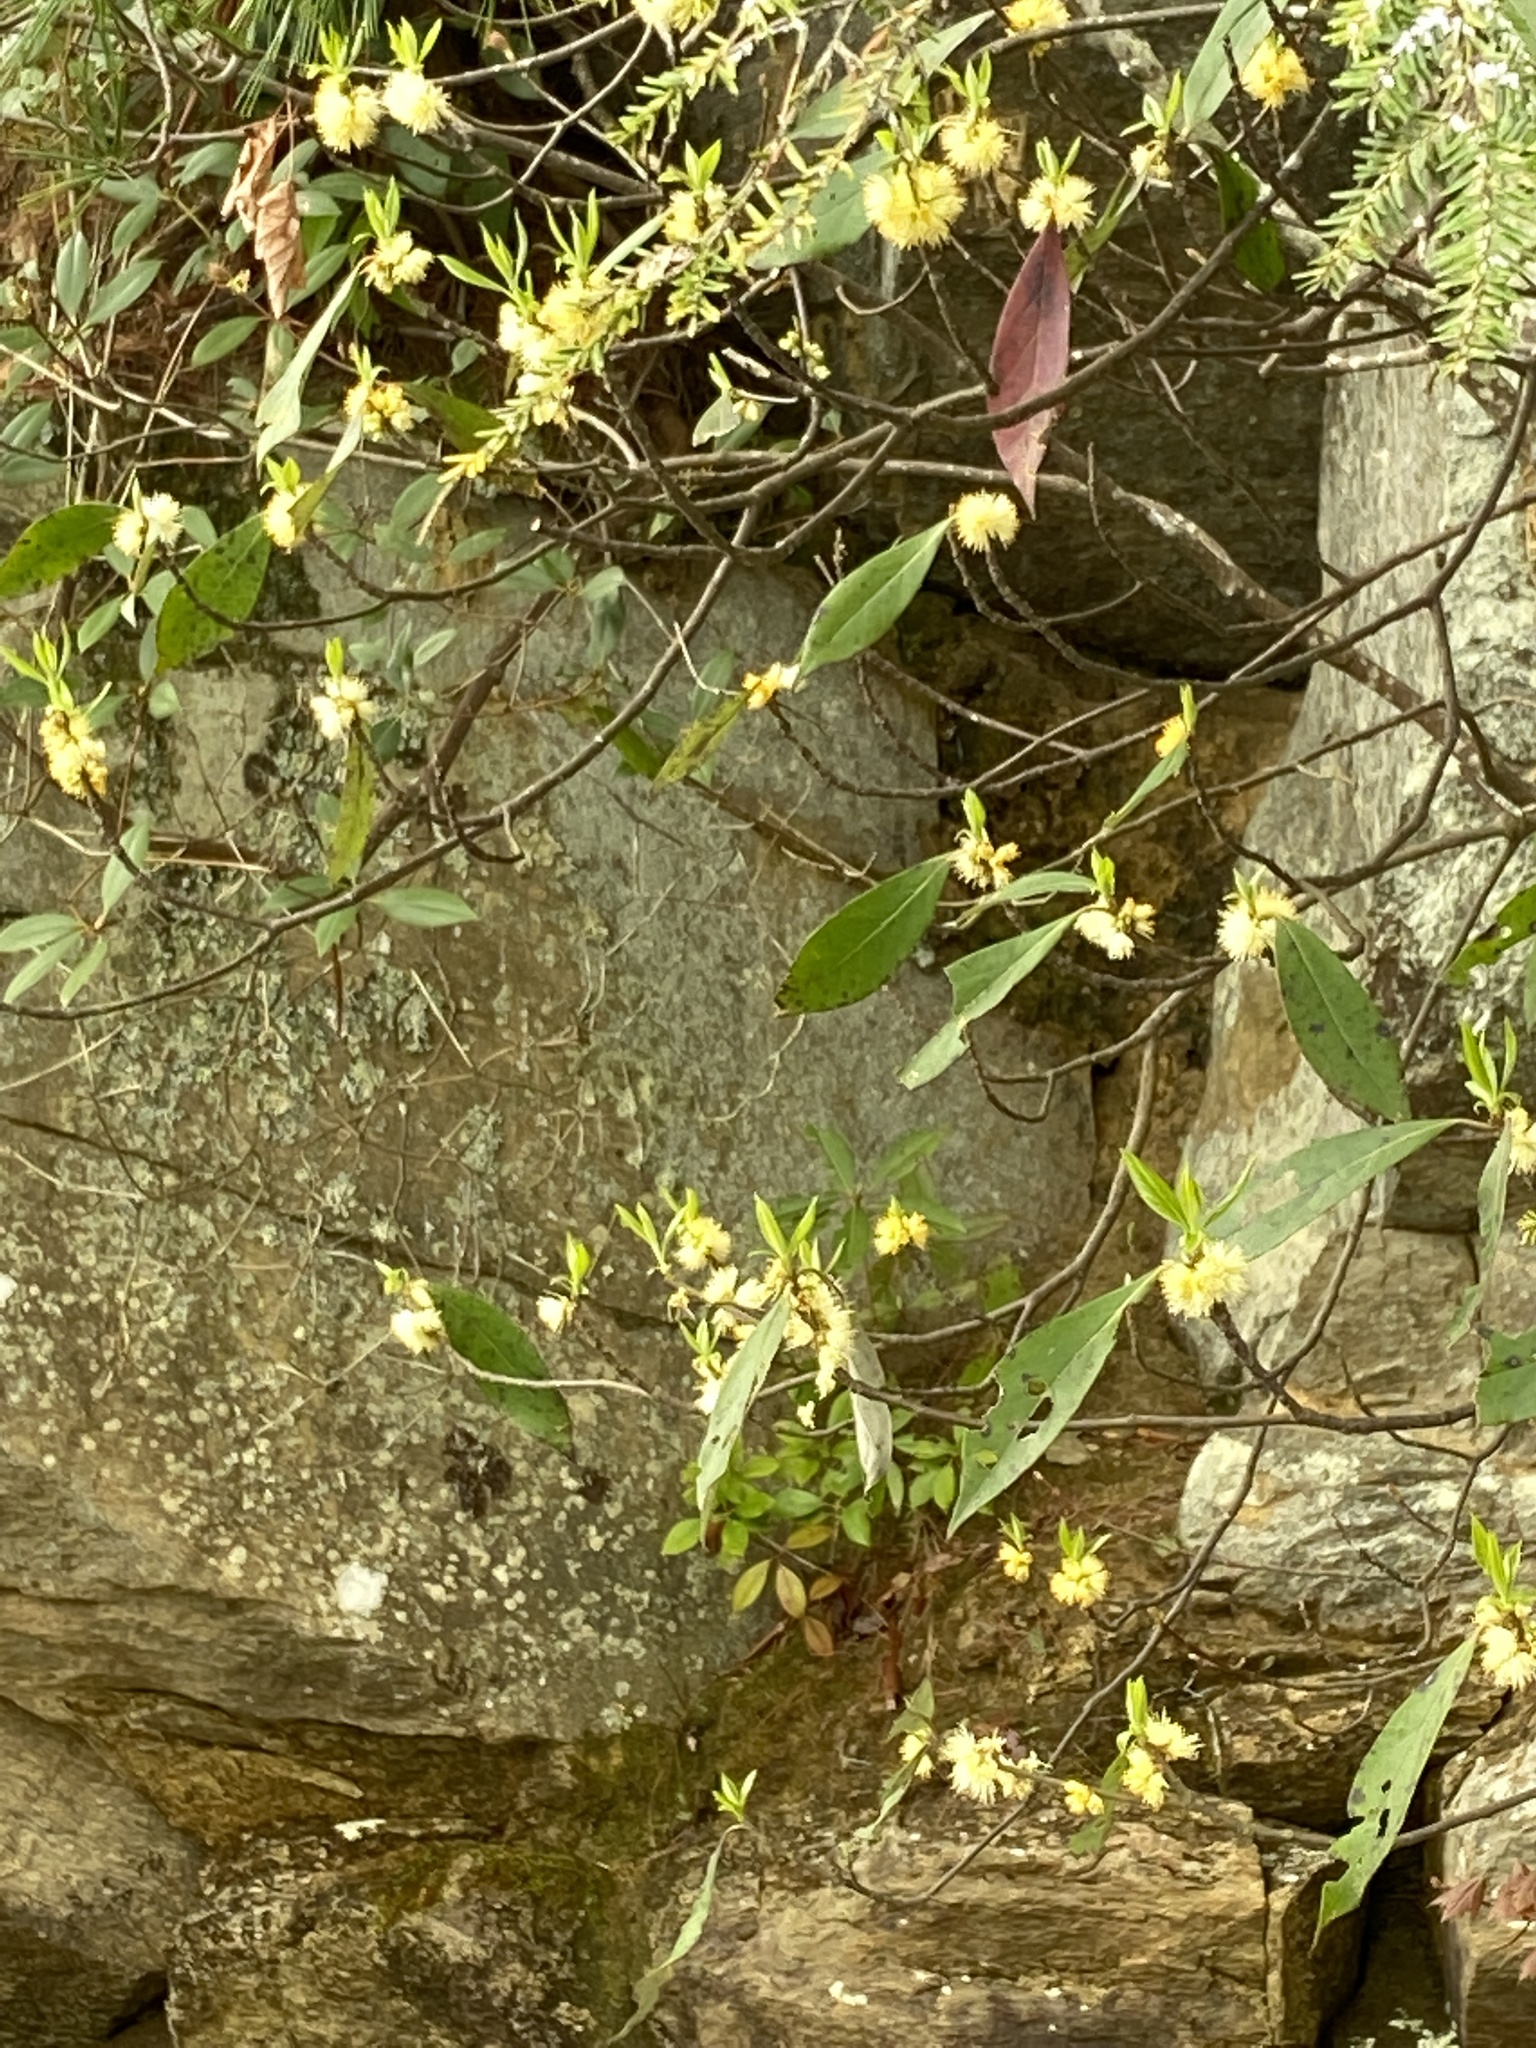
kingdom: Plantae
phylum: Tracheophyta
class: Magnoliopsida
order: Ericales
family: Symplocaceae
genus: Symplocos
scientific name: Symplocos tinctoria
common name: Horse-sugar
